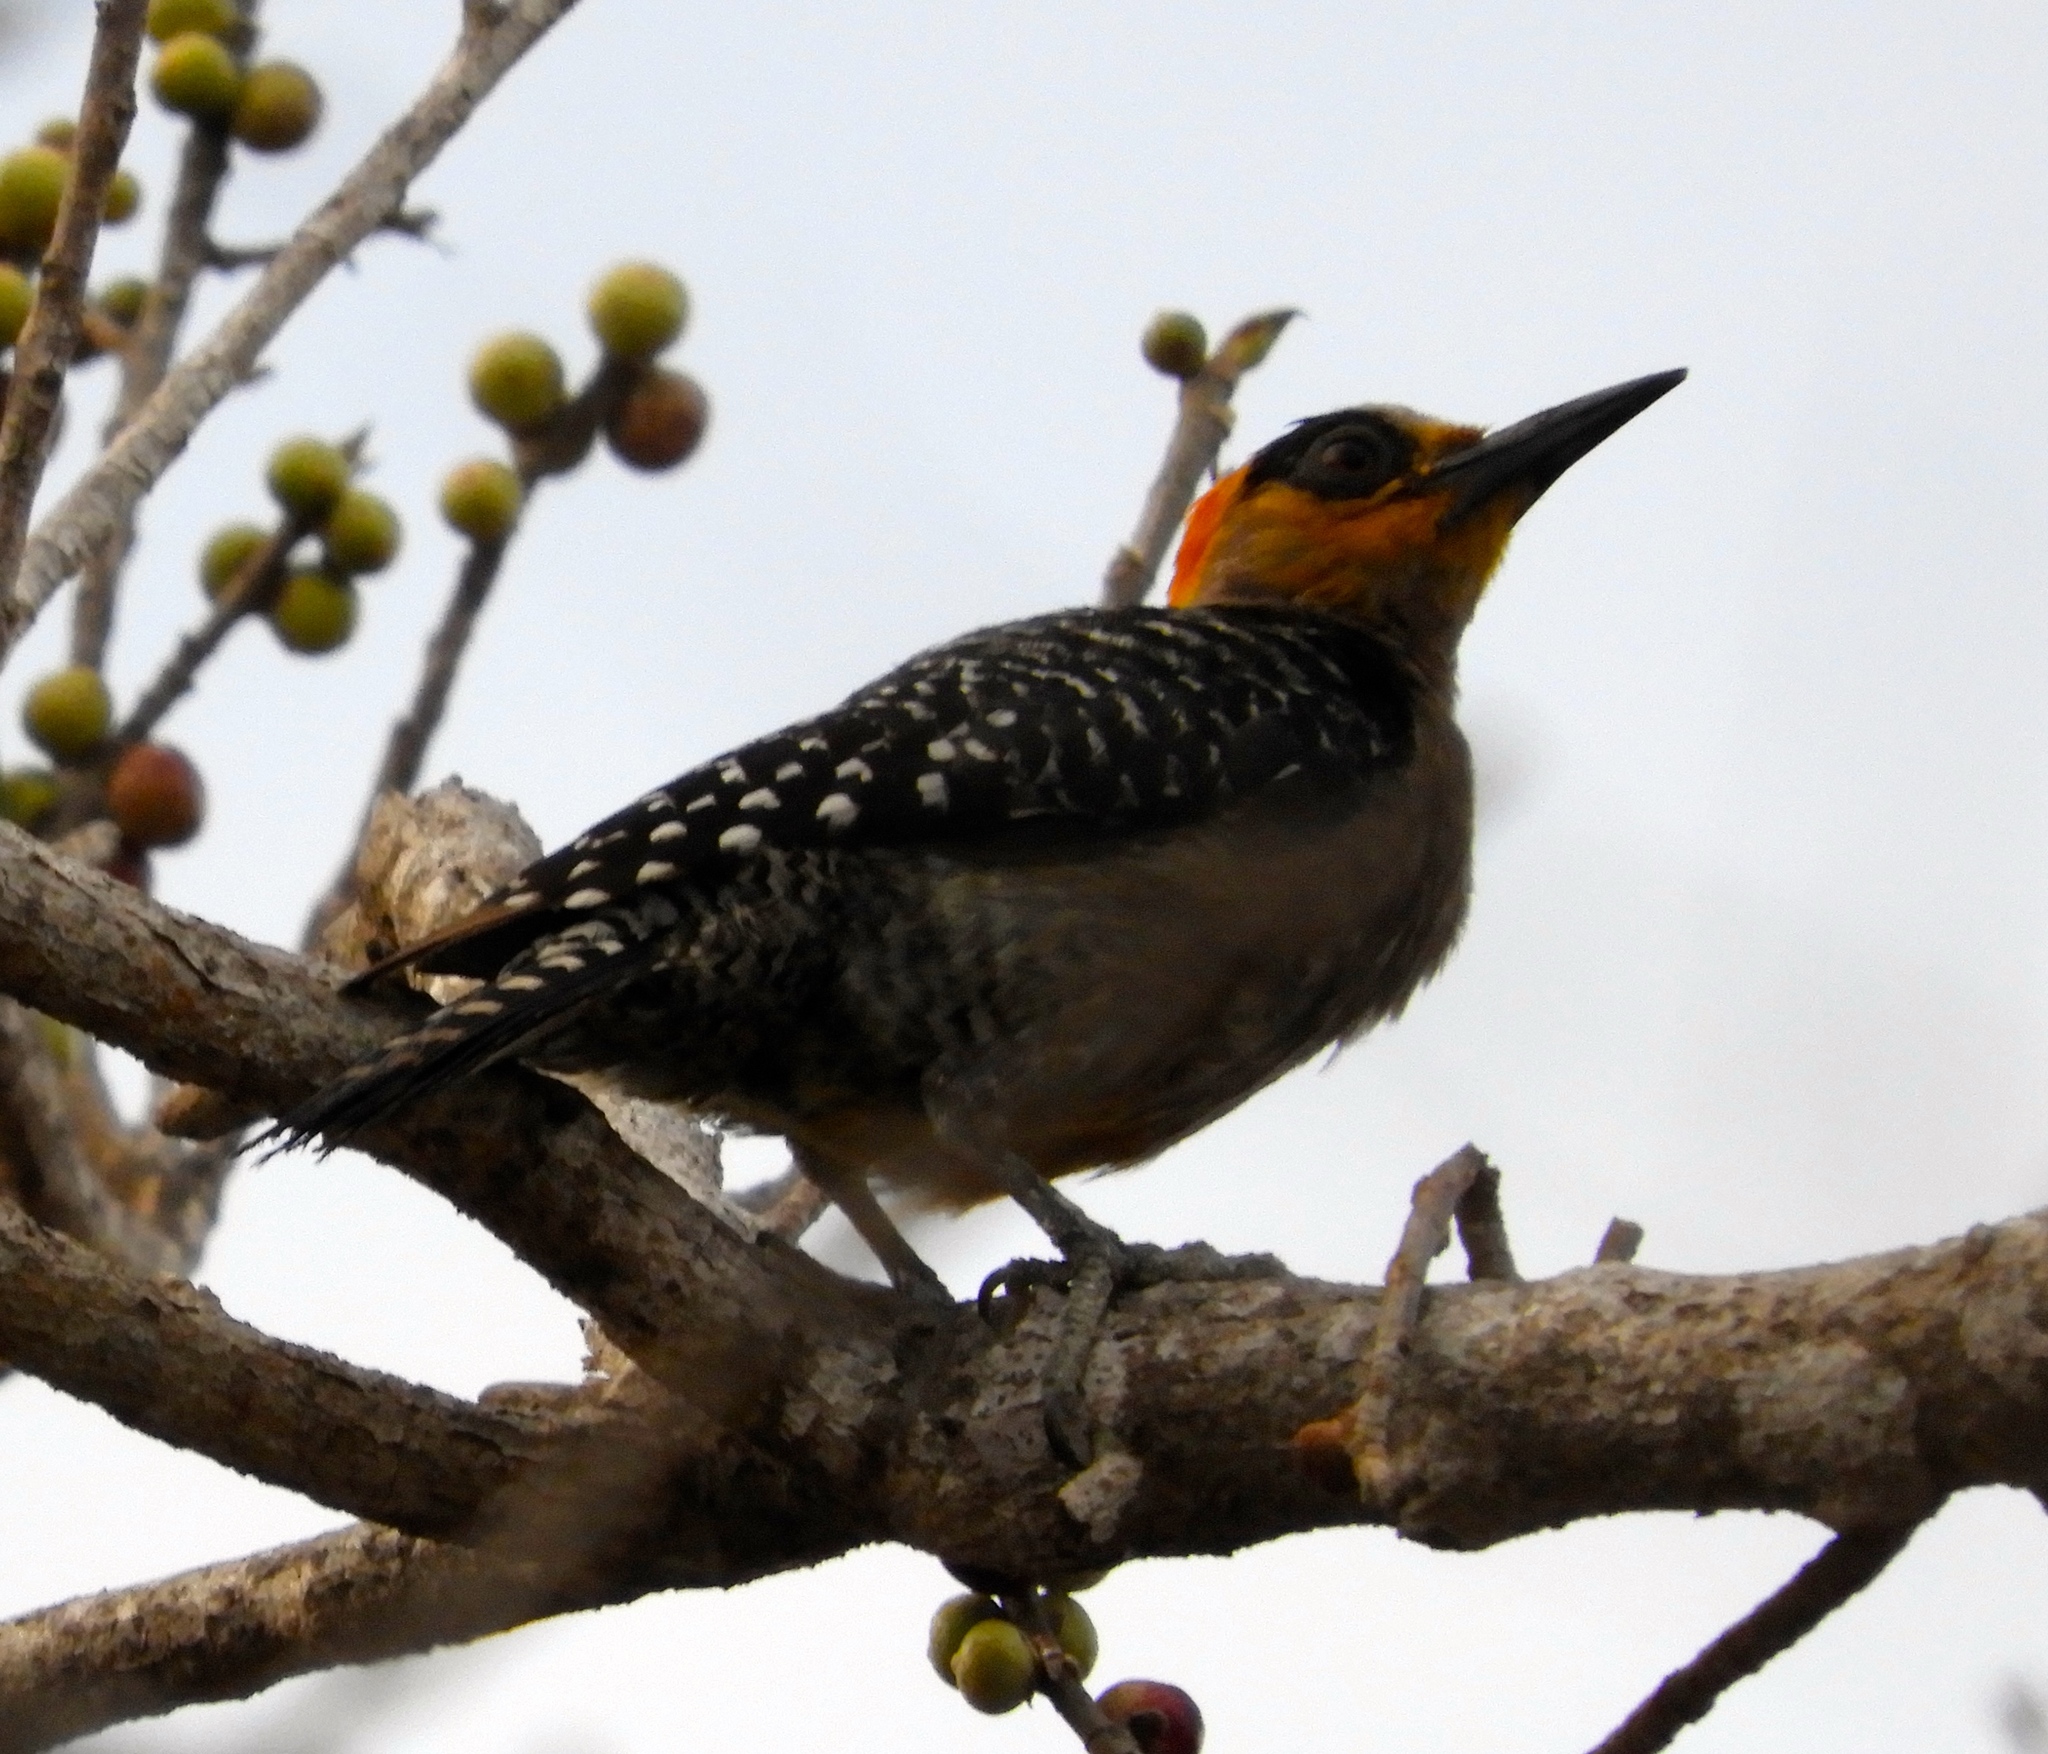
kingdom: Animalia
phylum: Chordata
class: Aves
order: Piciformes
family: Picidae
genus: Melanerpes
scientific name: Melanerpes chrysogenys
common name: Golden-cheeked woodpecker
